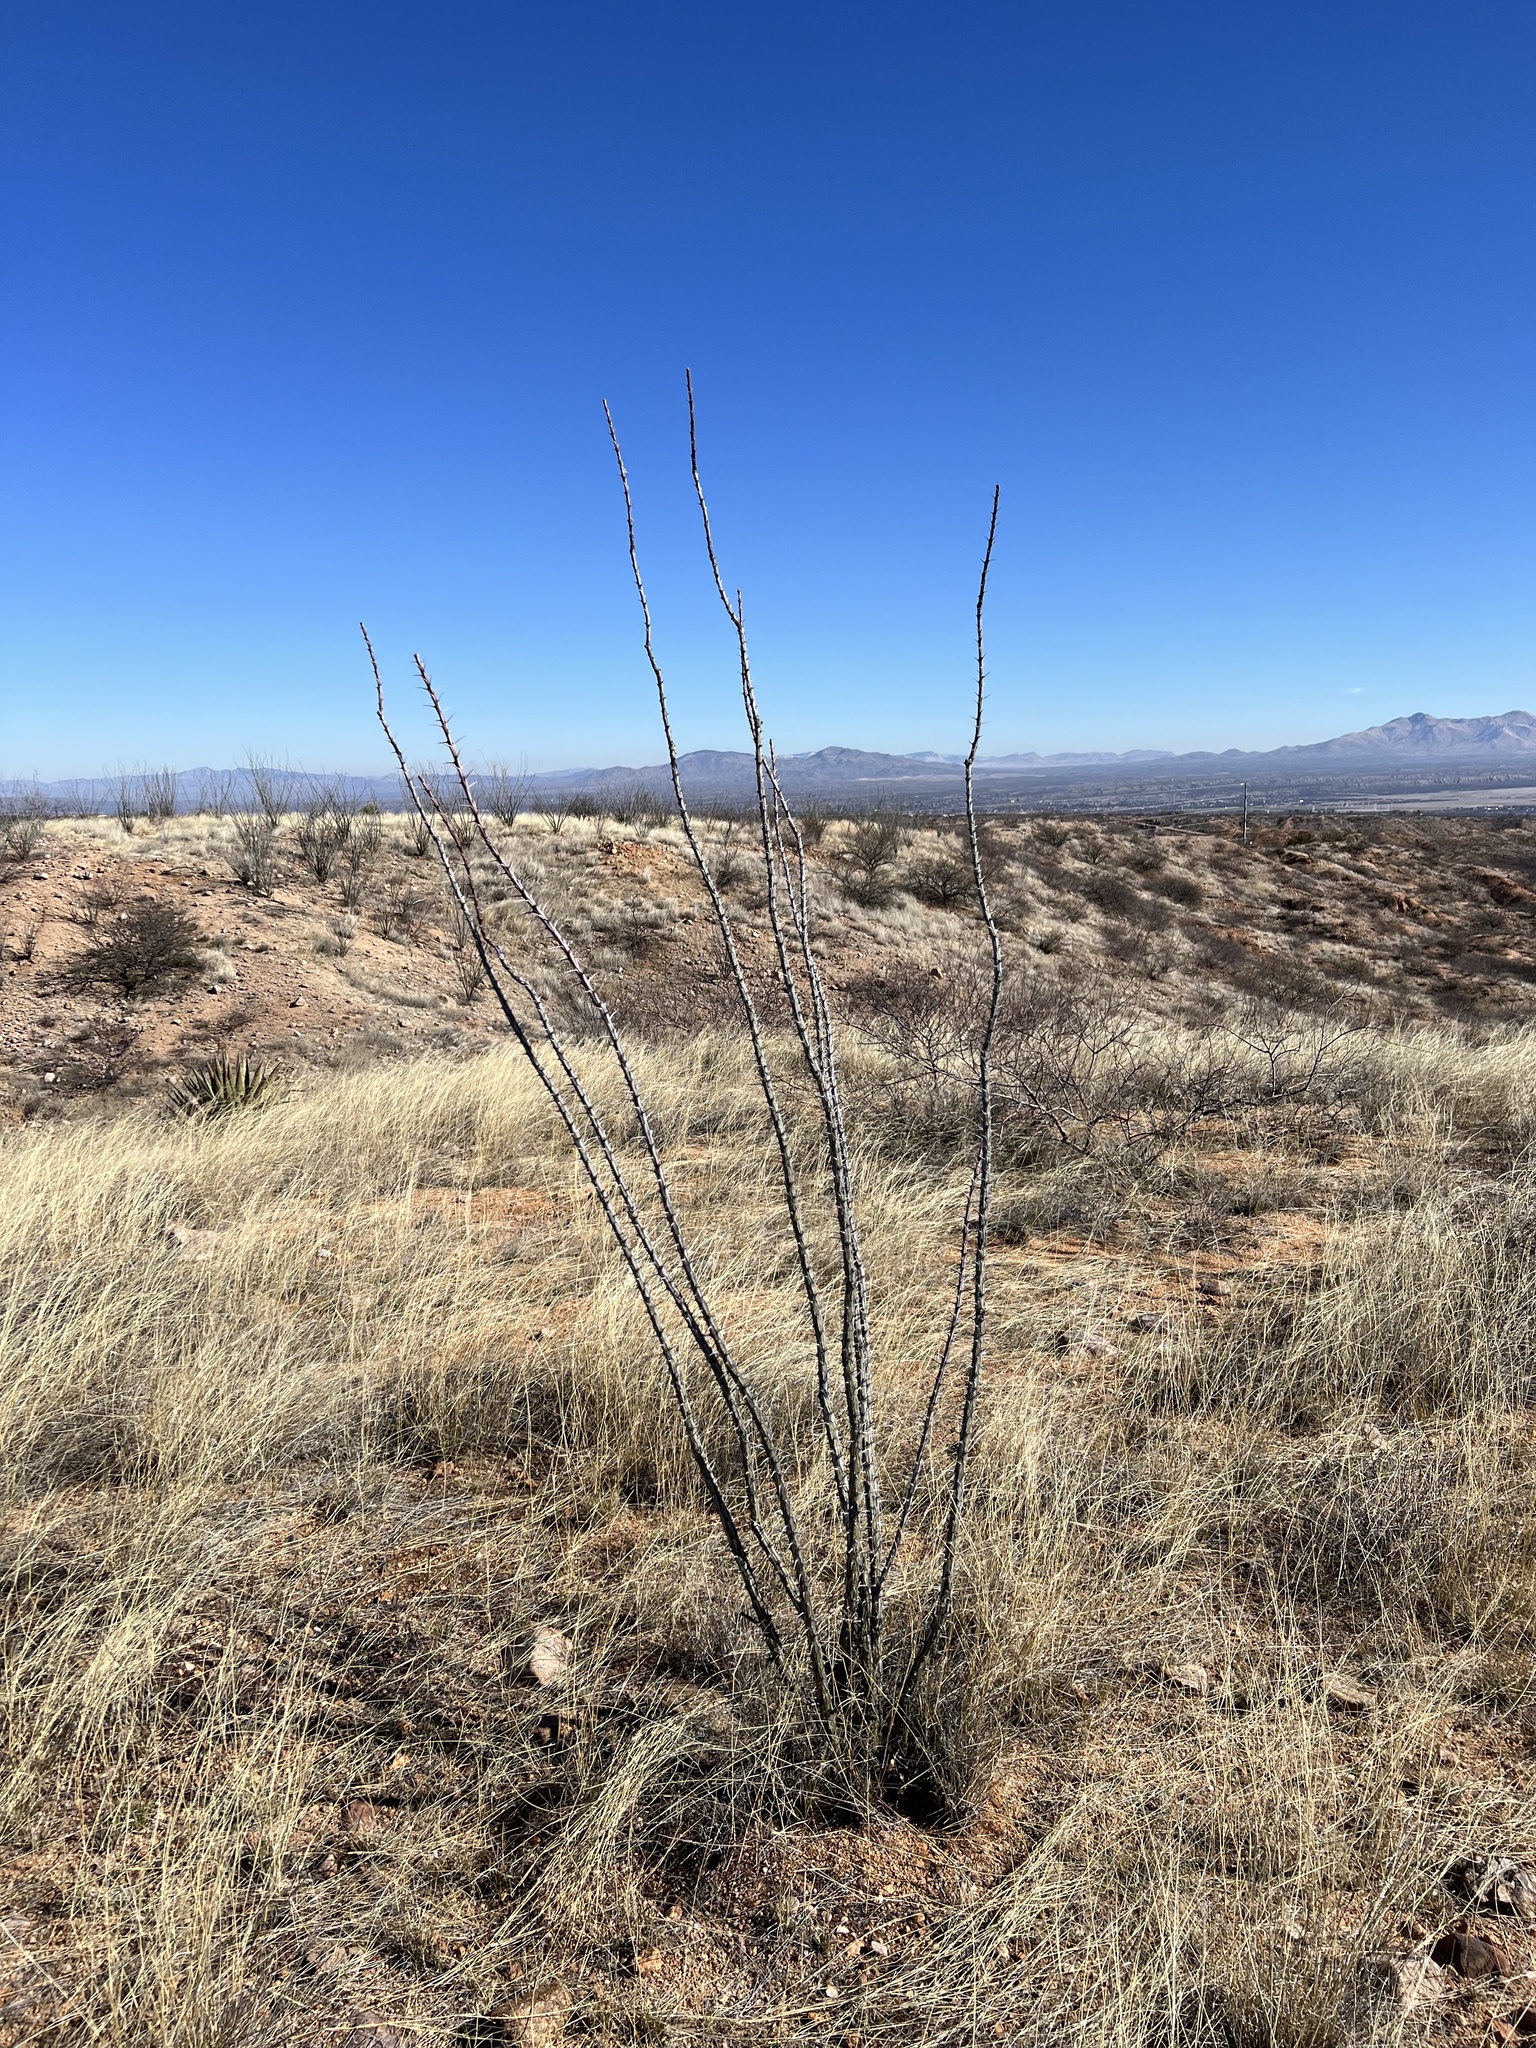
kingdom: Plantae
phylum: Tracheophyta
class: Magnoliopsida
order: Ericales
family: Fouquieriaceae
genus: Fouquieria
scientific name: Fouquieria splendens
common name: Vine-cactus
